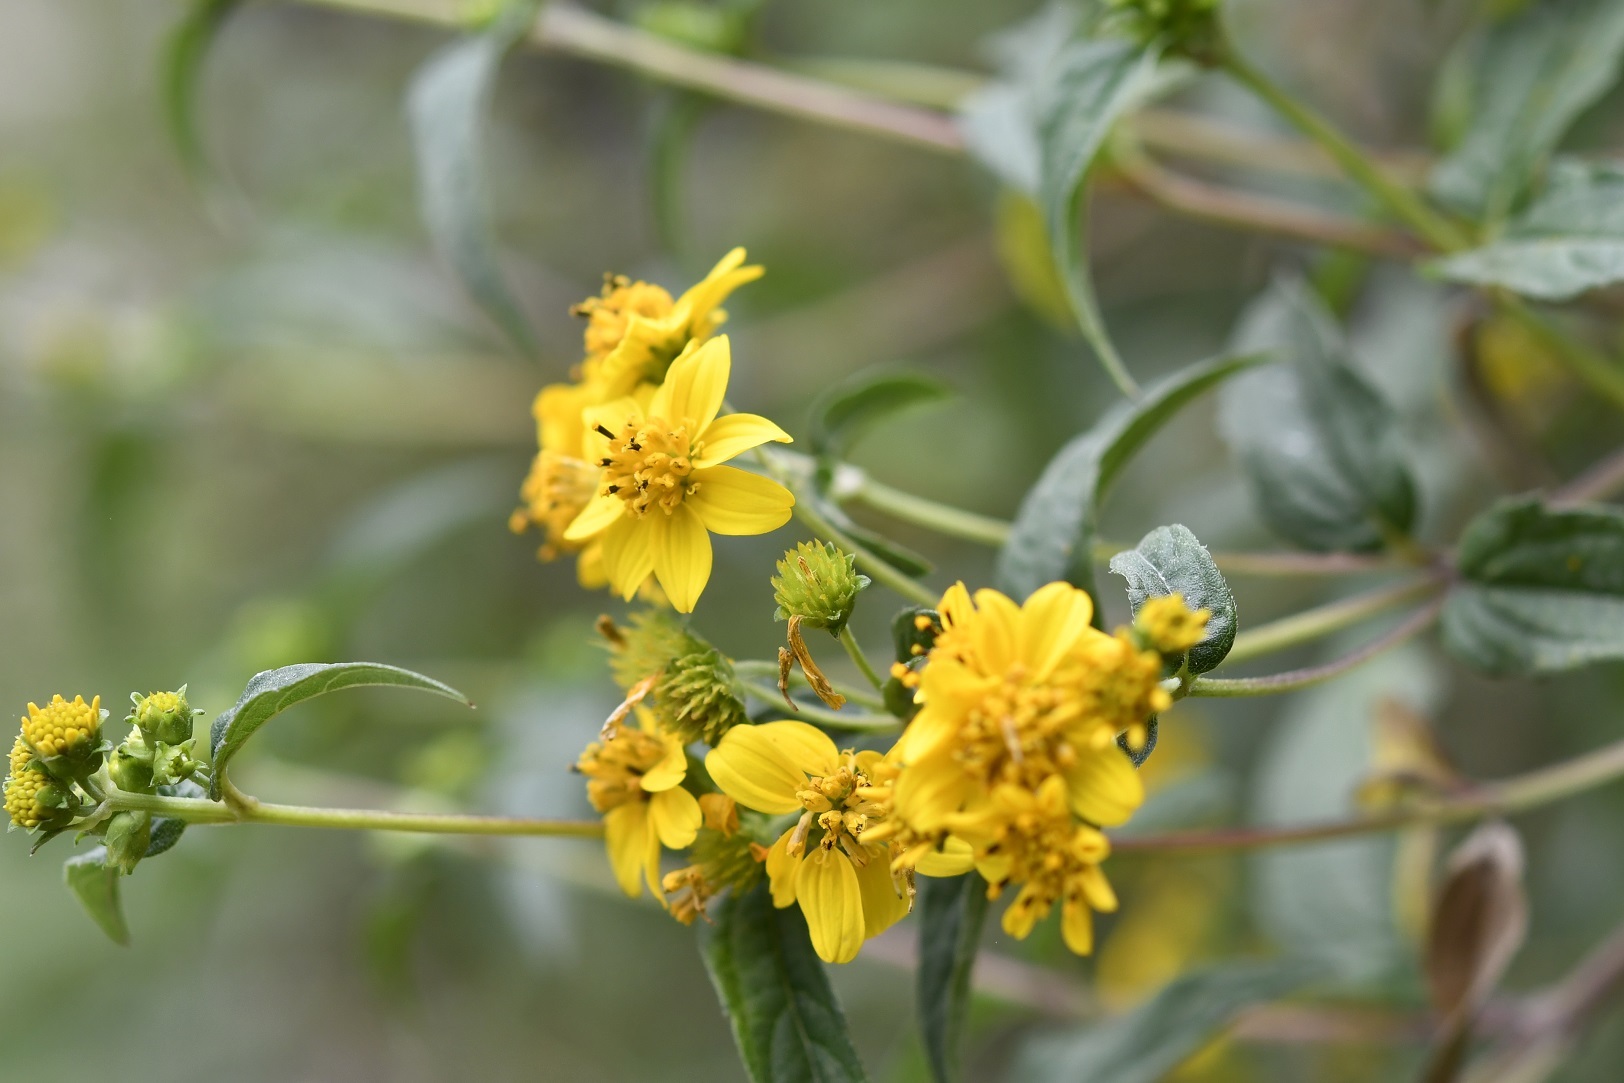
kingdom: Plantae
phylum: Tracheophyta
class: Magnoliopsida
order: Asterales
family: Asteraceae
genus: Perymenium
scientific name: Perymenium ghiesbreghtii
